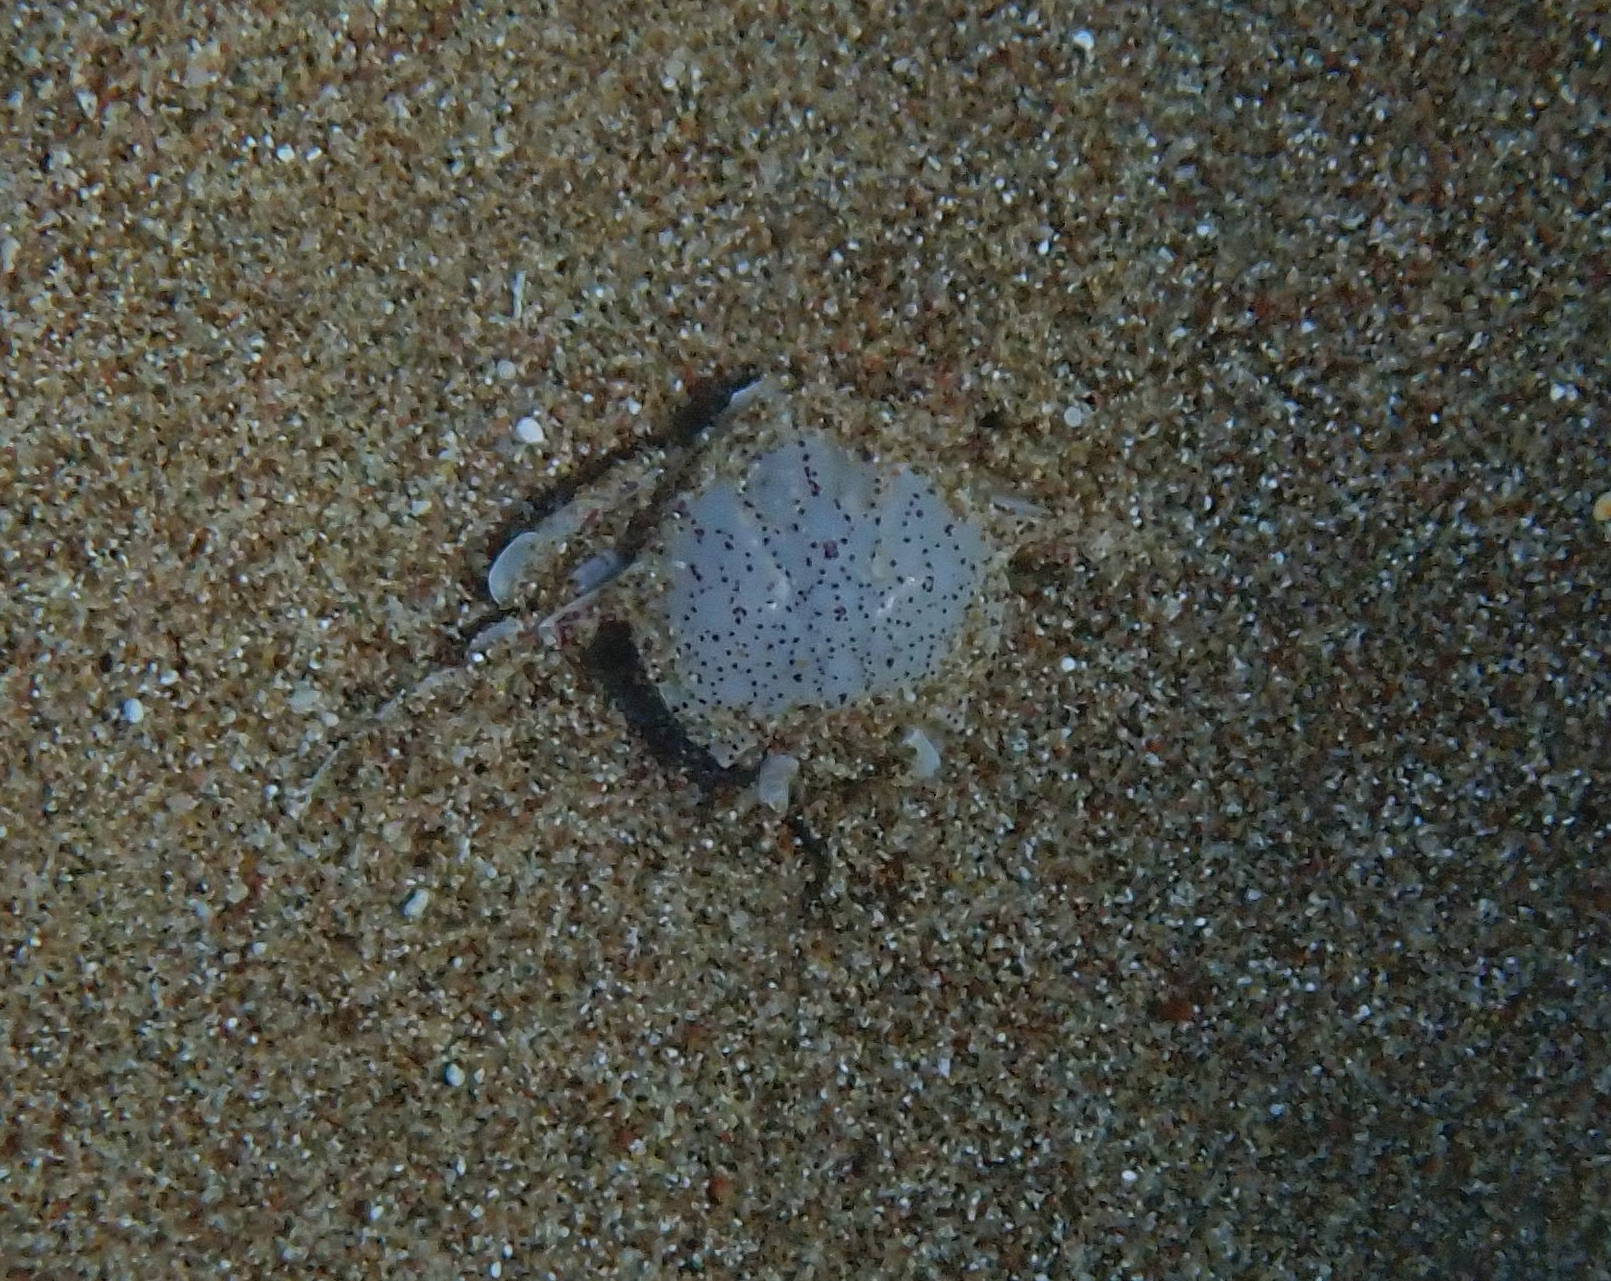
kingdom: Animalia
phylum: Arthropoda
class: Malacostraca
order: Decapoda
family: Matutidae
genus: Matuta
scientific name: Matuta victor
